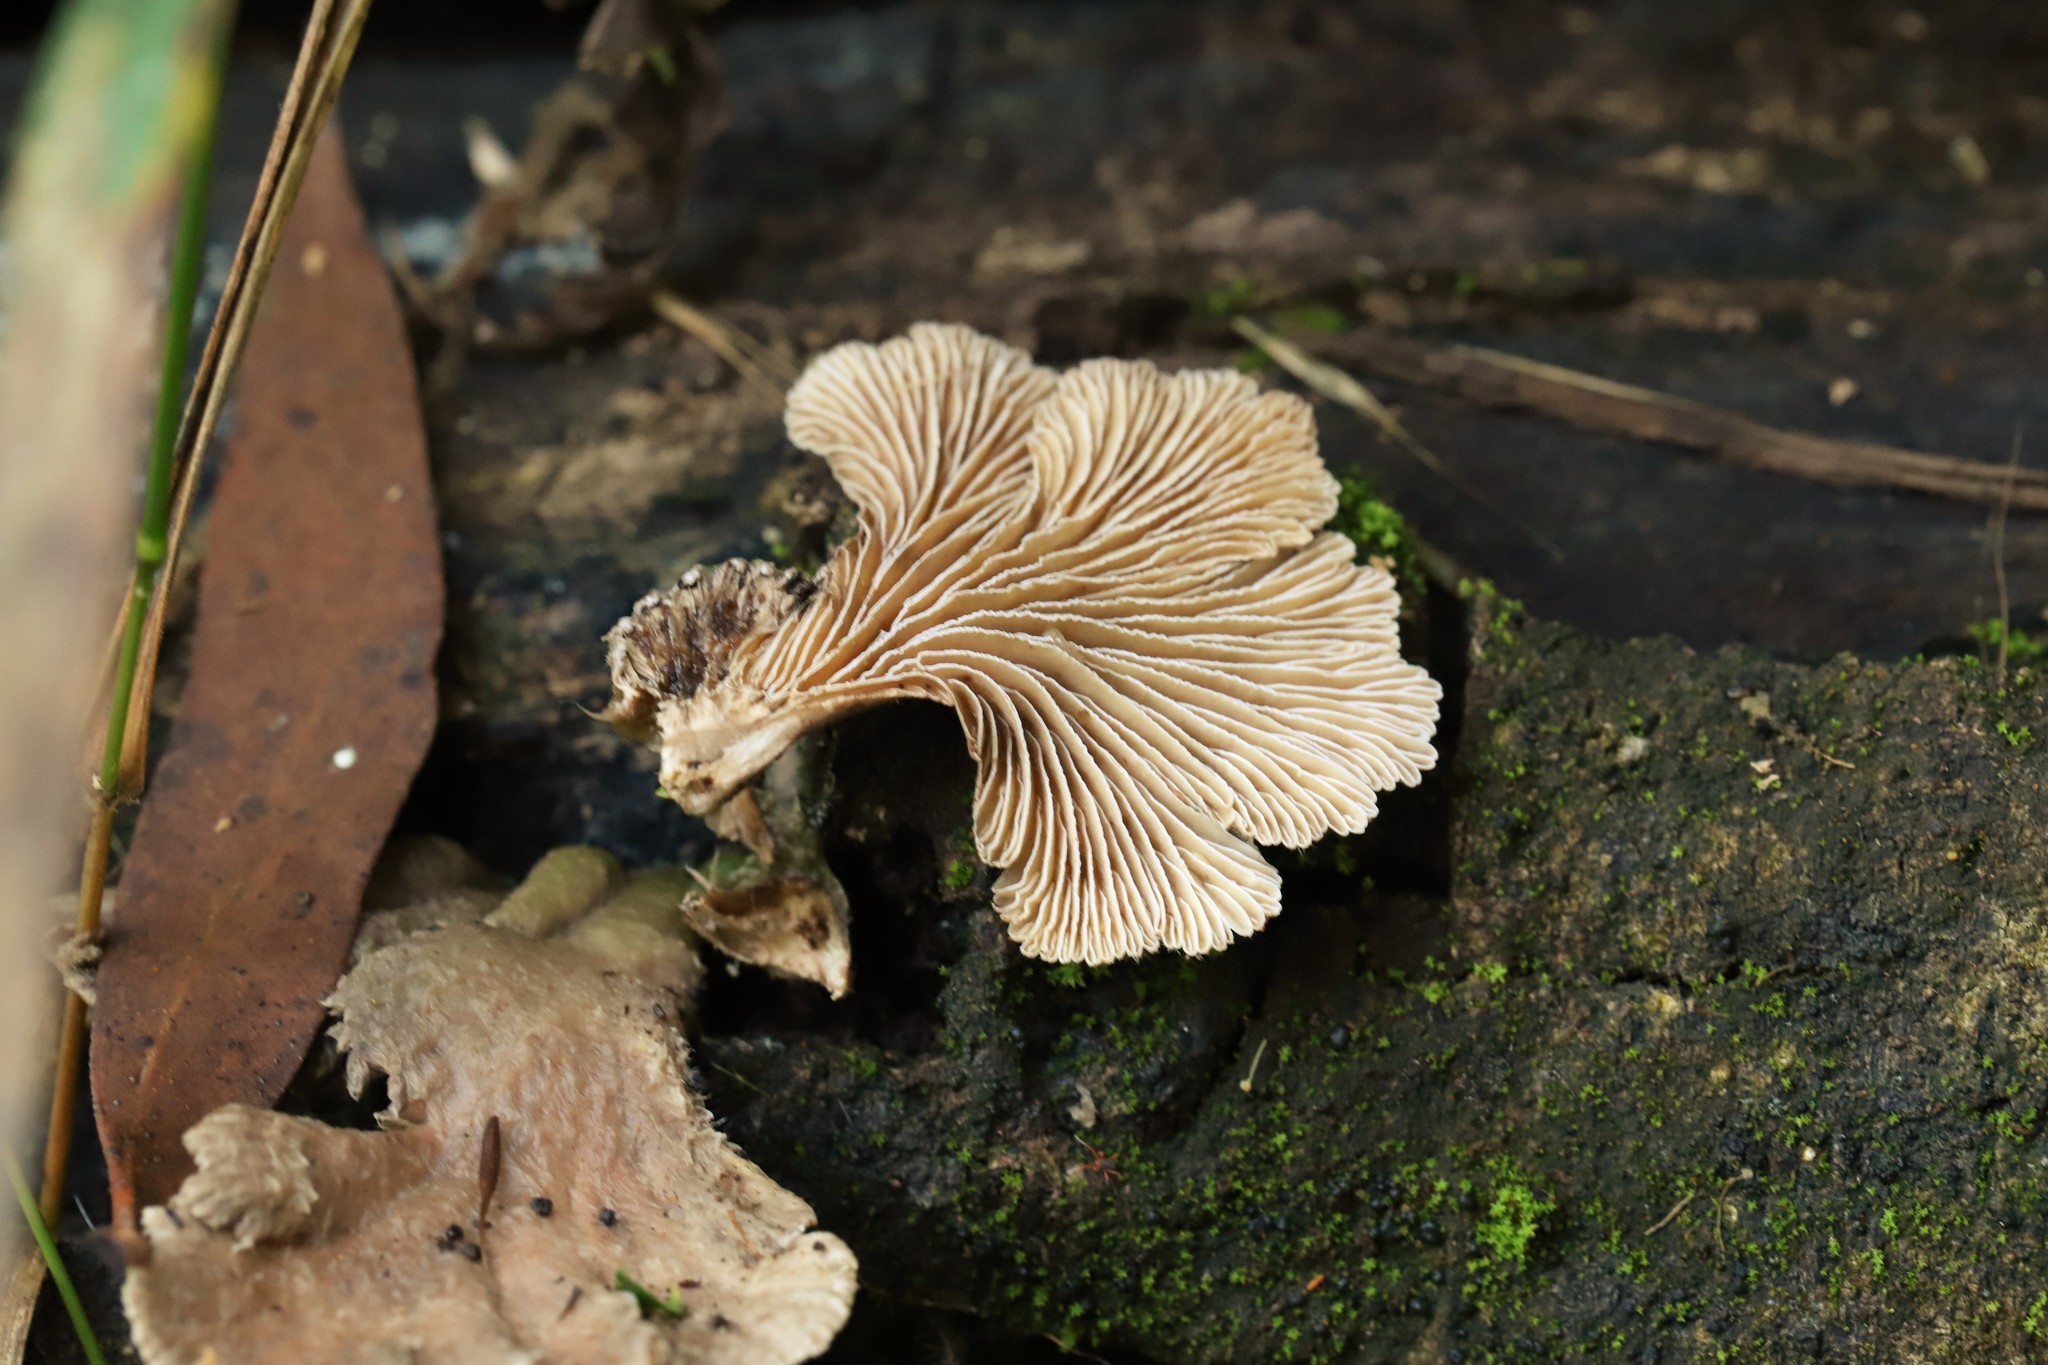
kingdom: Fungi
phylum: Basidiomycota
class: Agaricomycetes
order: Agaricales
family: Schizophyllaceae
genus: Schizophyllum
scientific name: Schizophyllum commune
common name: Common porecrust
